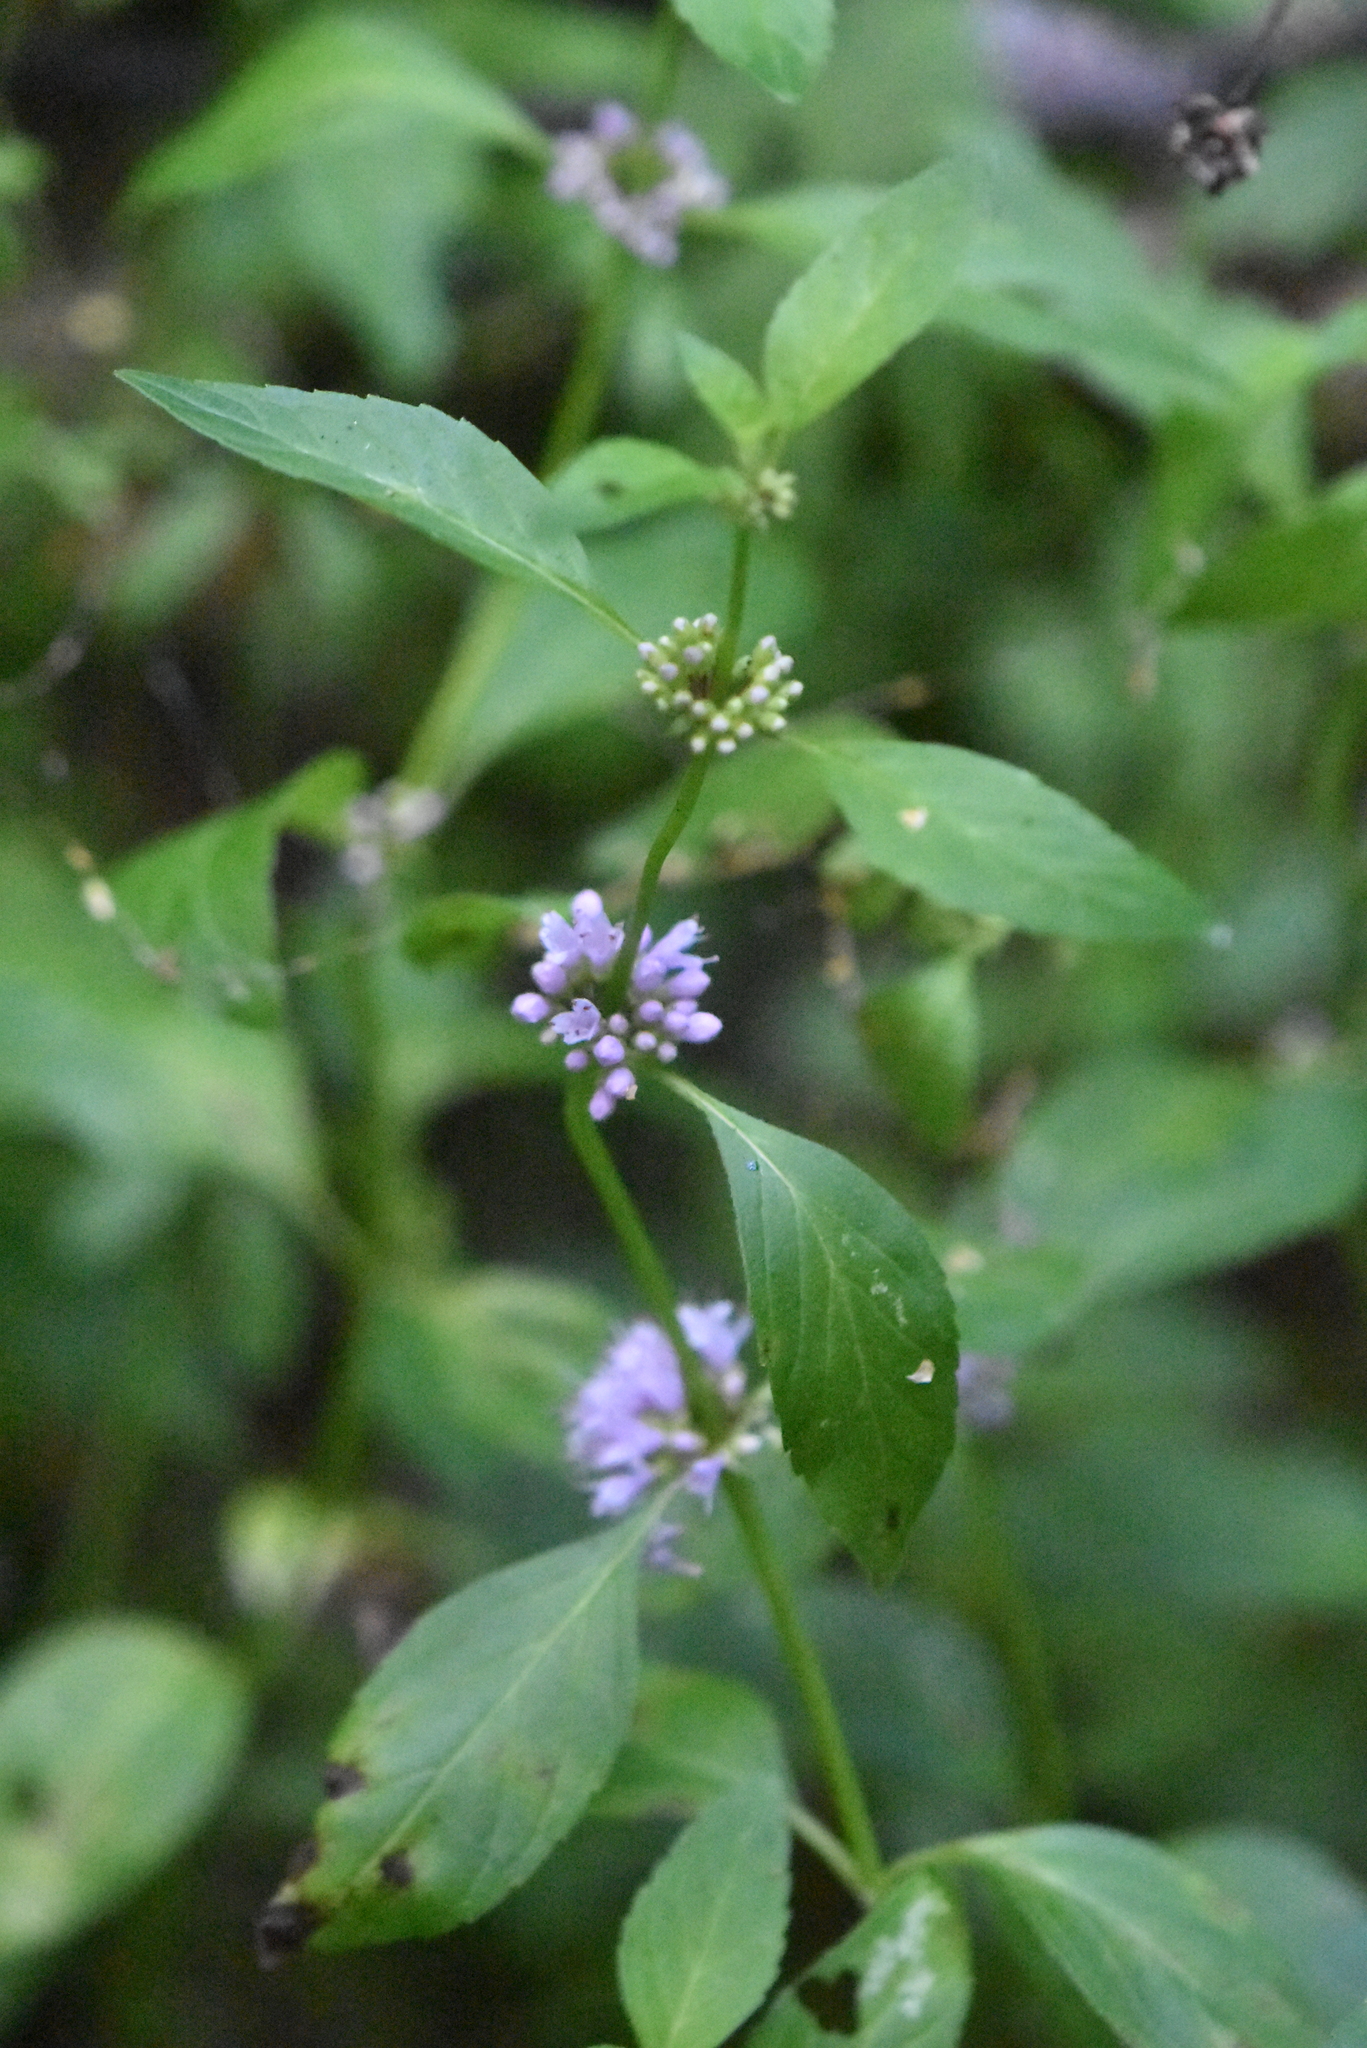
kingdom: Plantae
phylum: Tracheophyta
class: Magnoliopsida
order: Lamiales
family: Lamiaceae
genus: Mentha
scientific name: Mentha arvensis
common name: Corn mint
